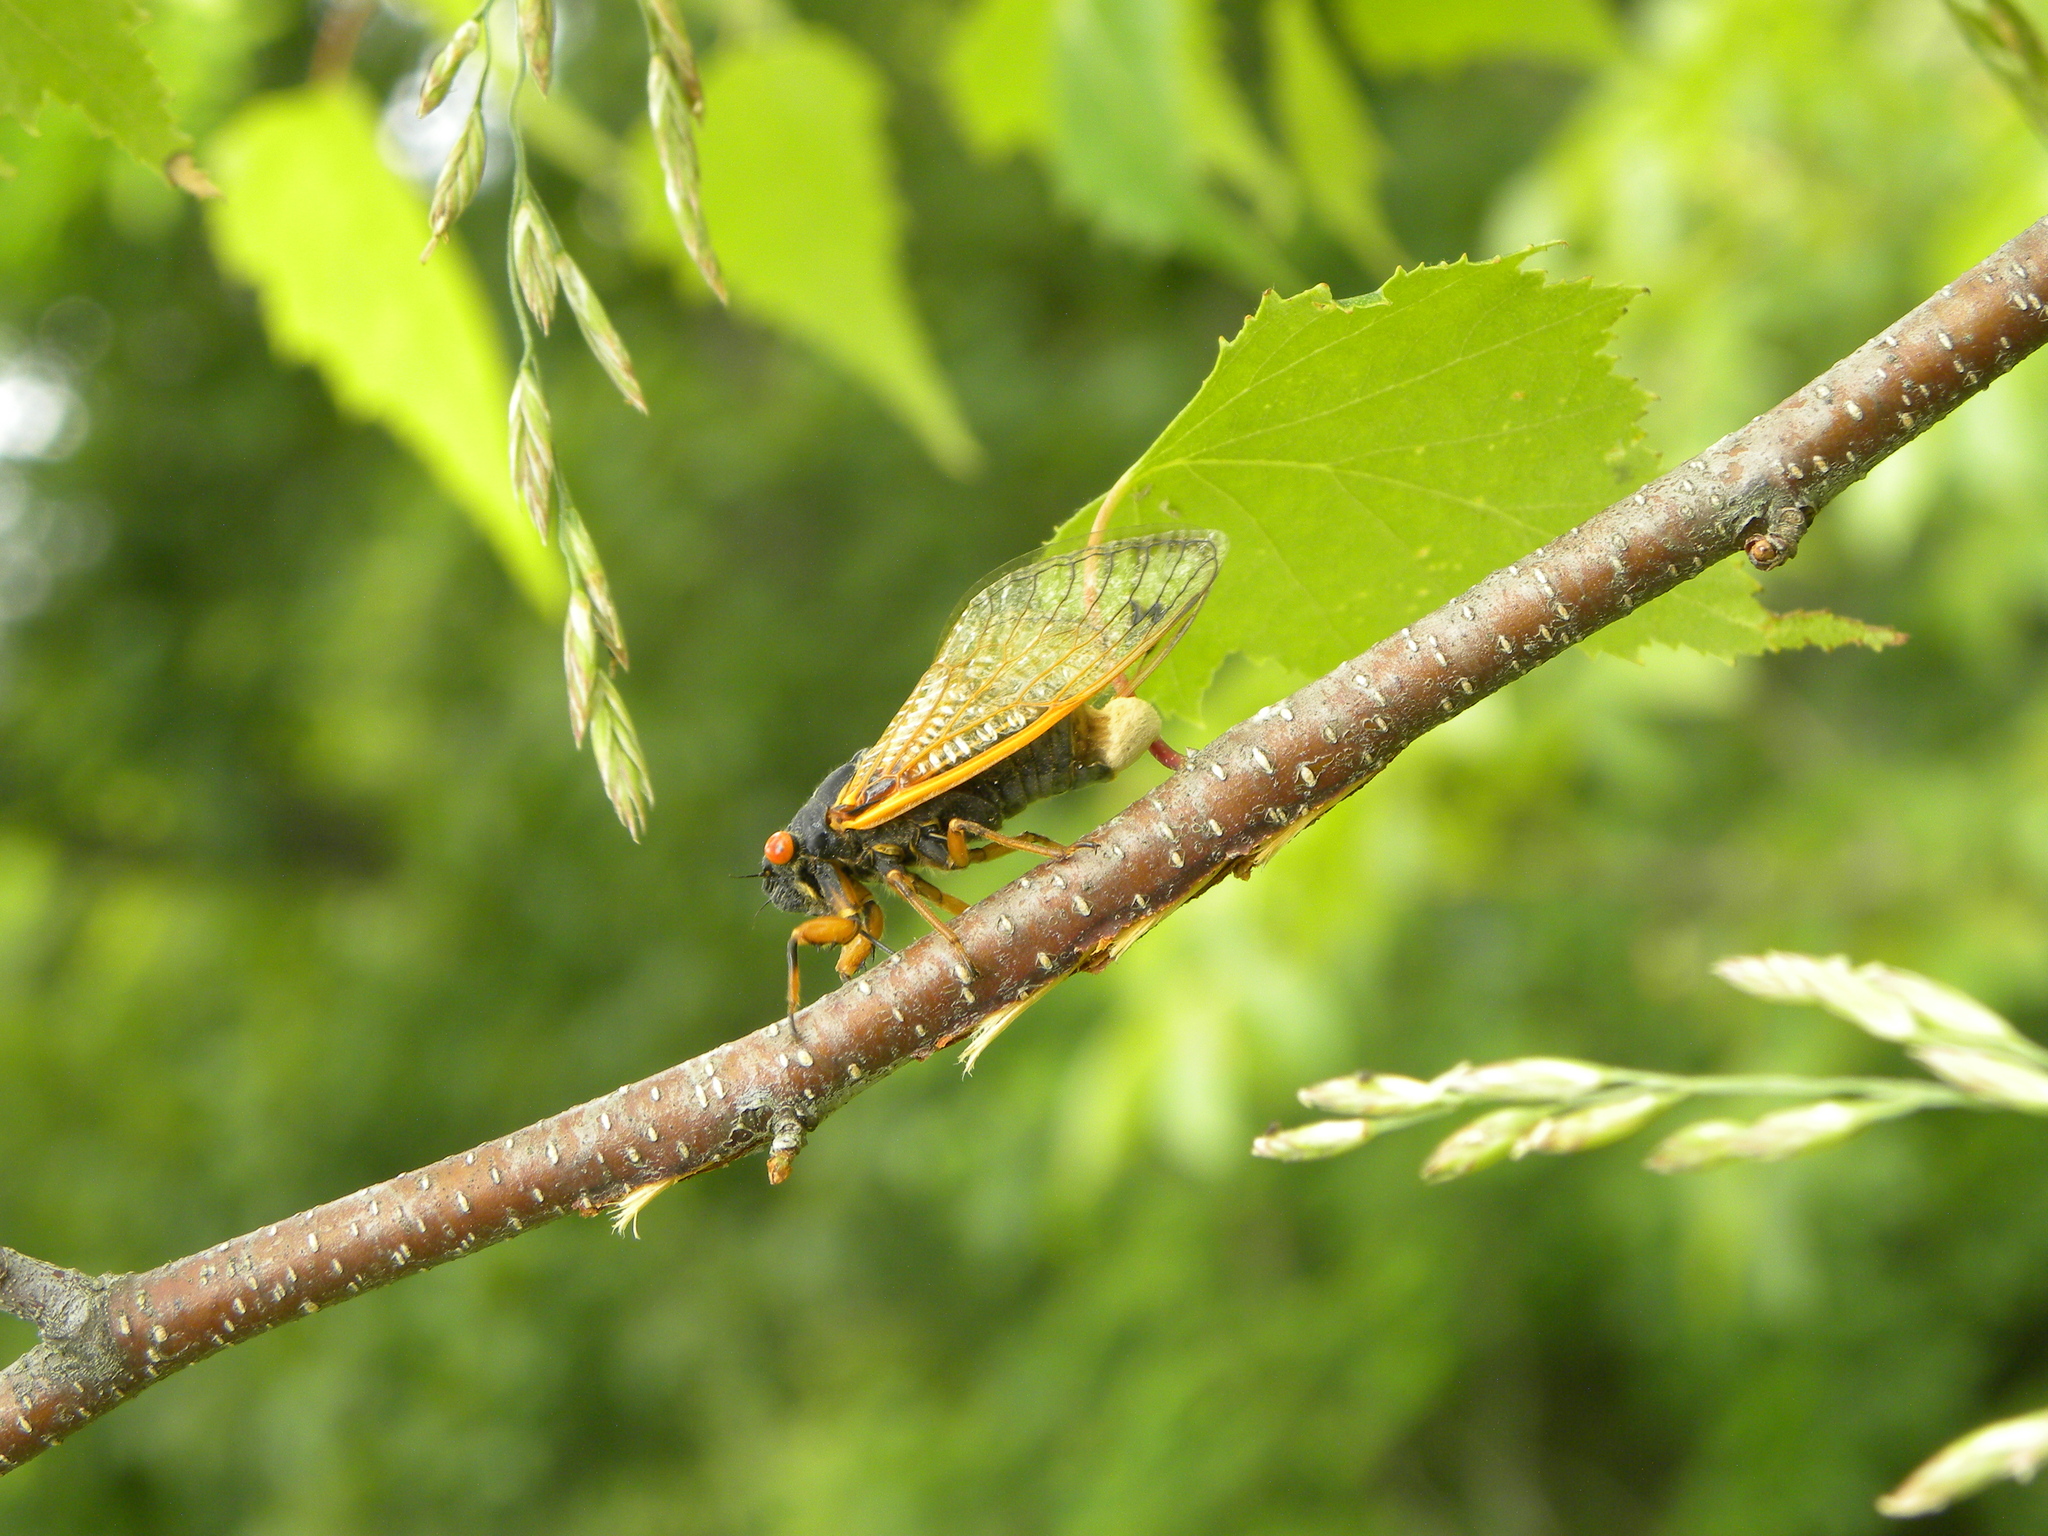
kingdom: Animalia
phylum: Arthropoda
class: Insecta
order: Hemiptera
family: Cicadidae
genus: Magicicada
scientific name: Magicicada cassini
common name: Cassin's 17-year cicada
